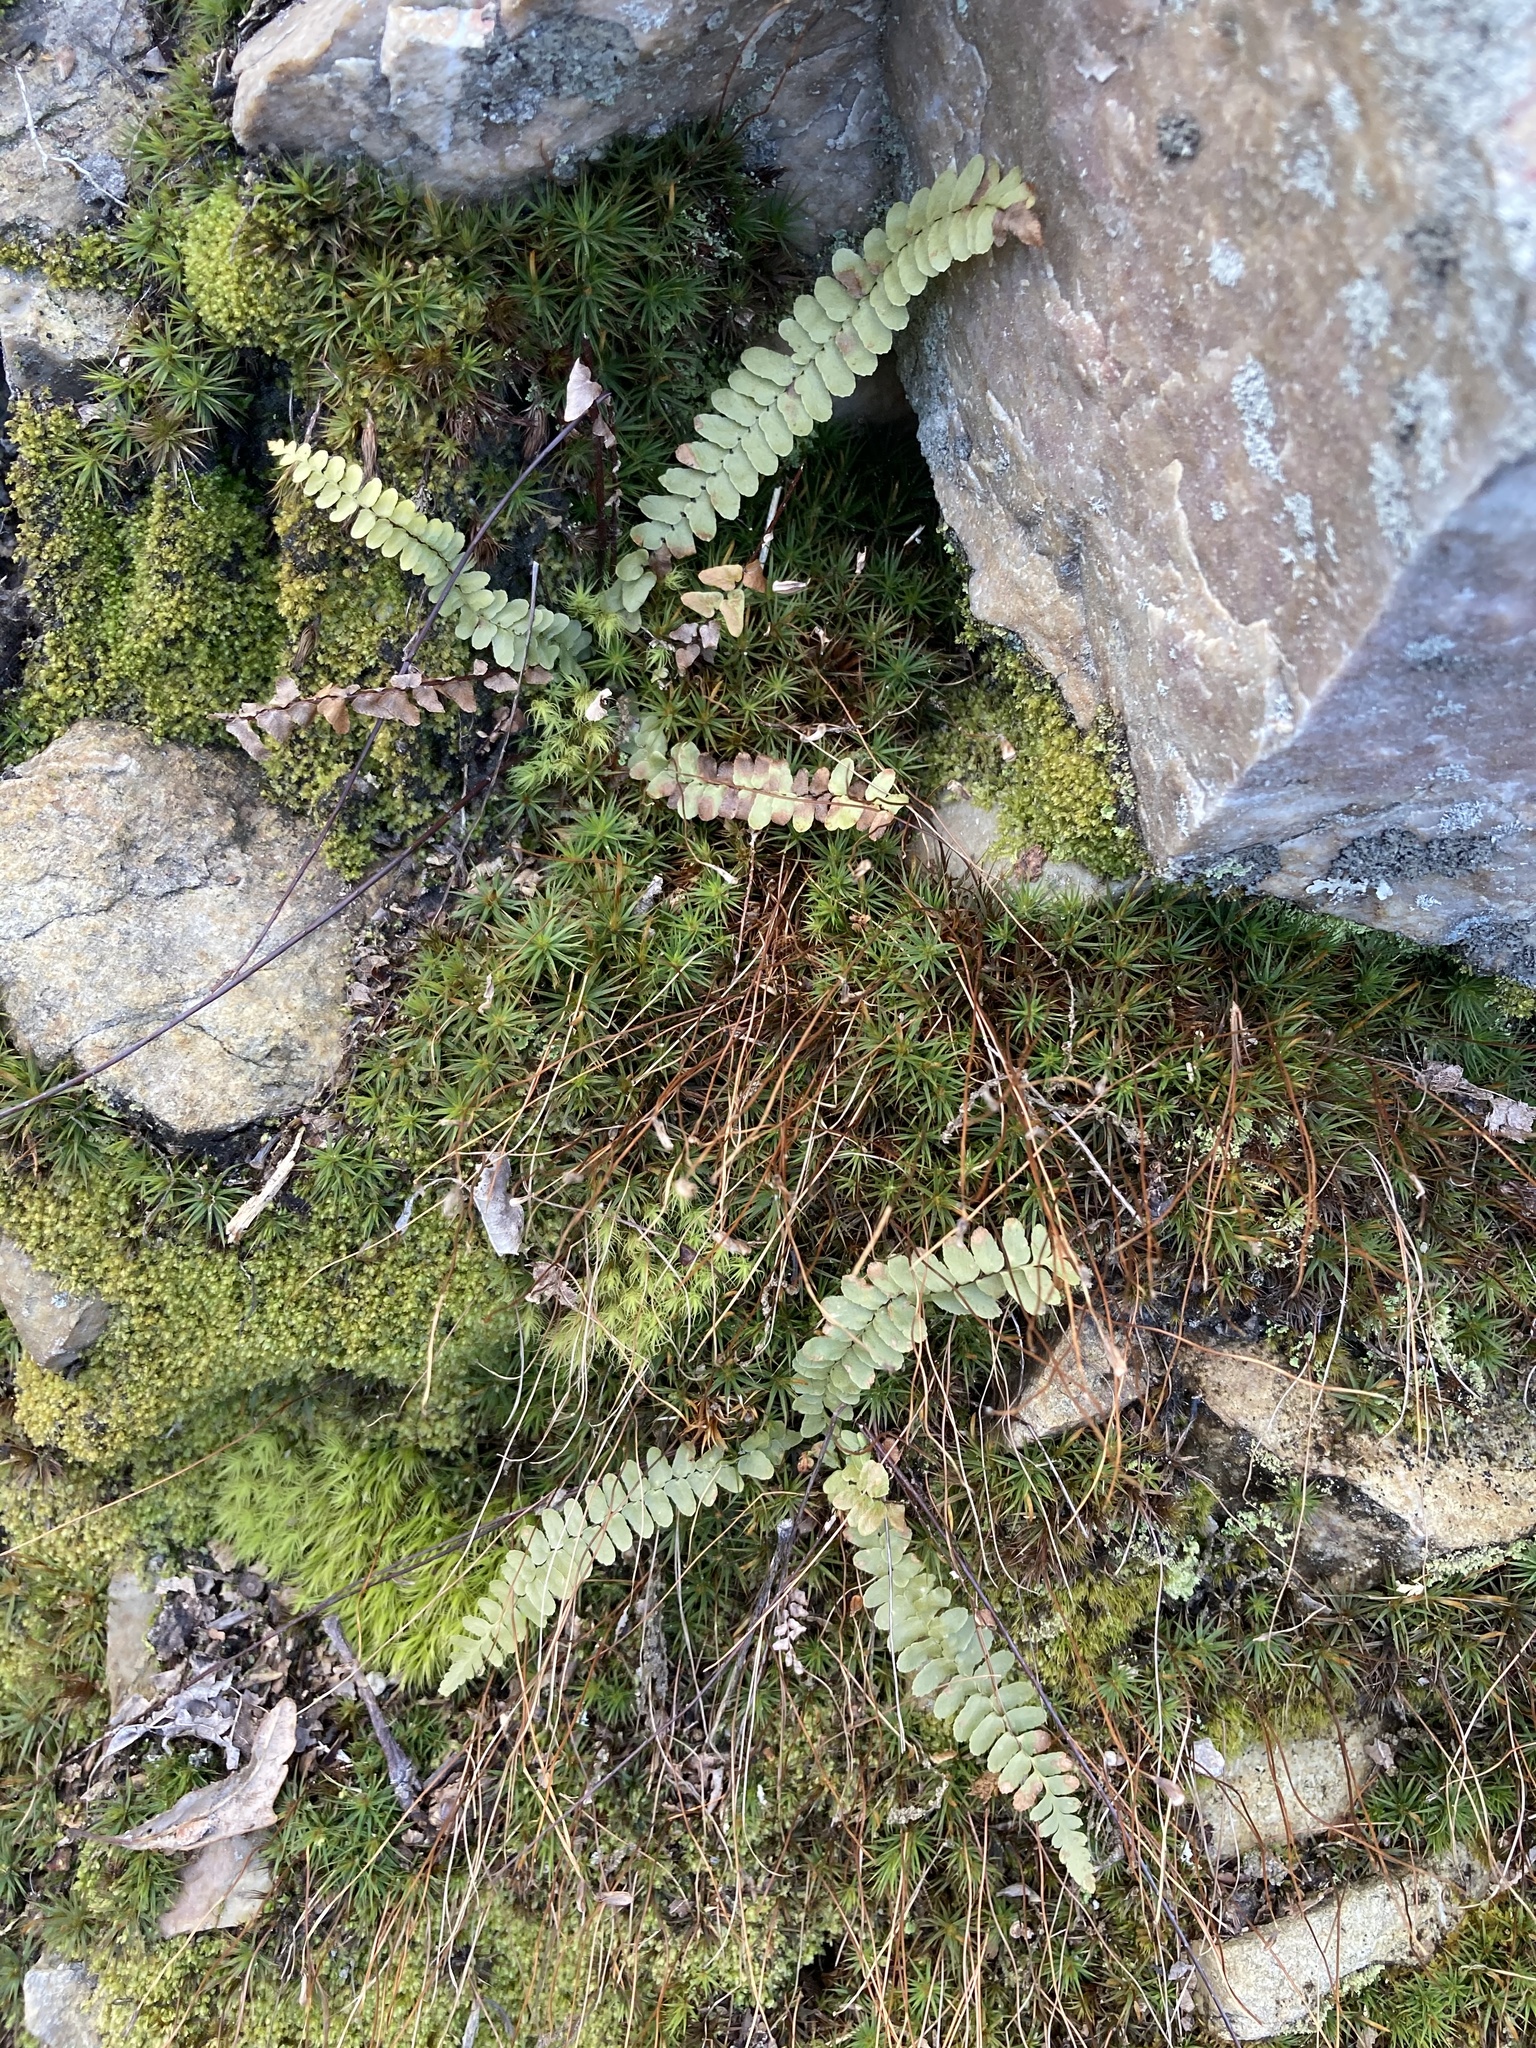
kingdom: Plantae
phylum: Tracheophyta
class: Polypodiopsida
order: Polypodiales
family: Aspleniaceae
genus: Asplenium
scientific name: Asplenium platyneuron
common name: Ebony spleenwort
